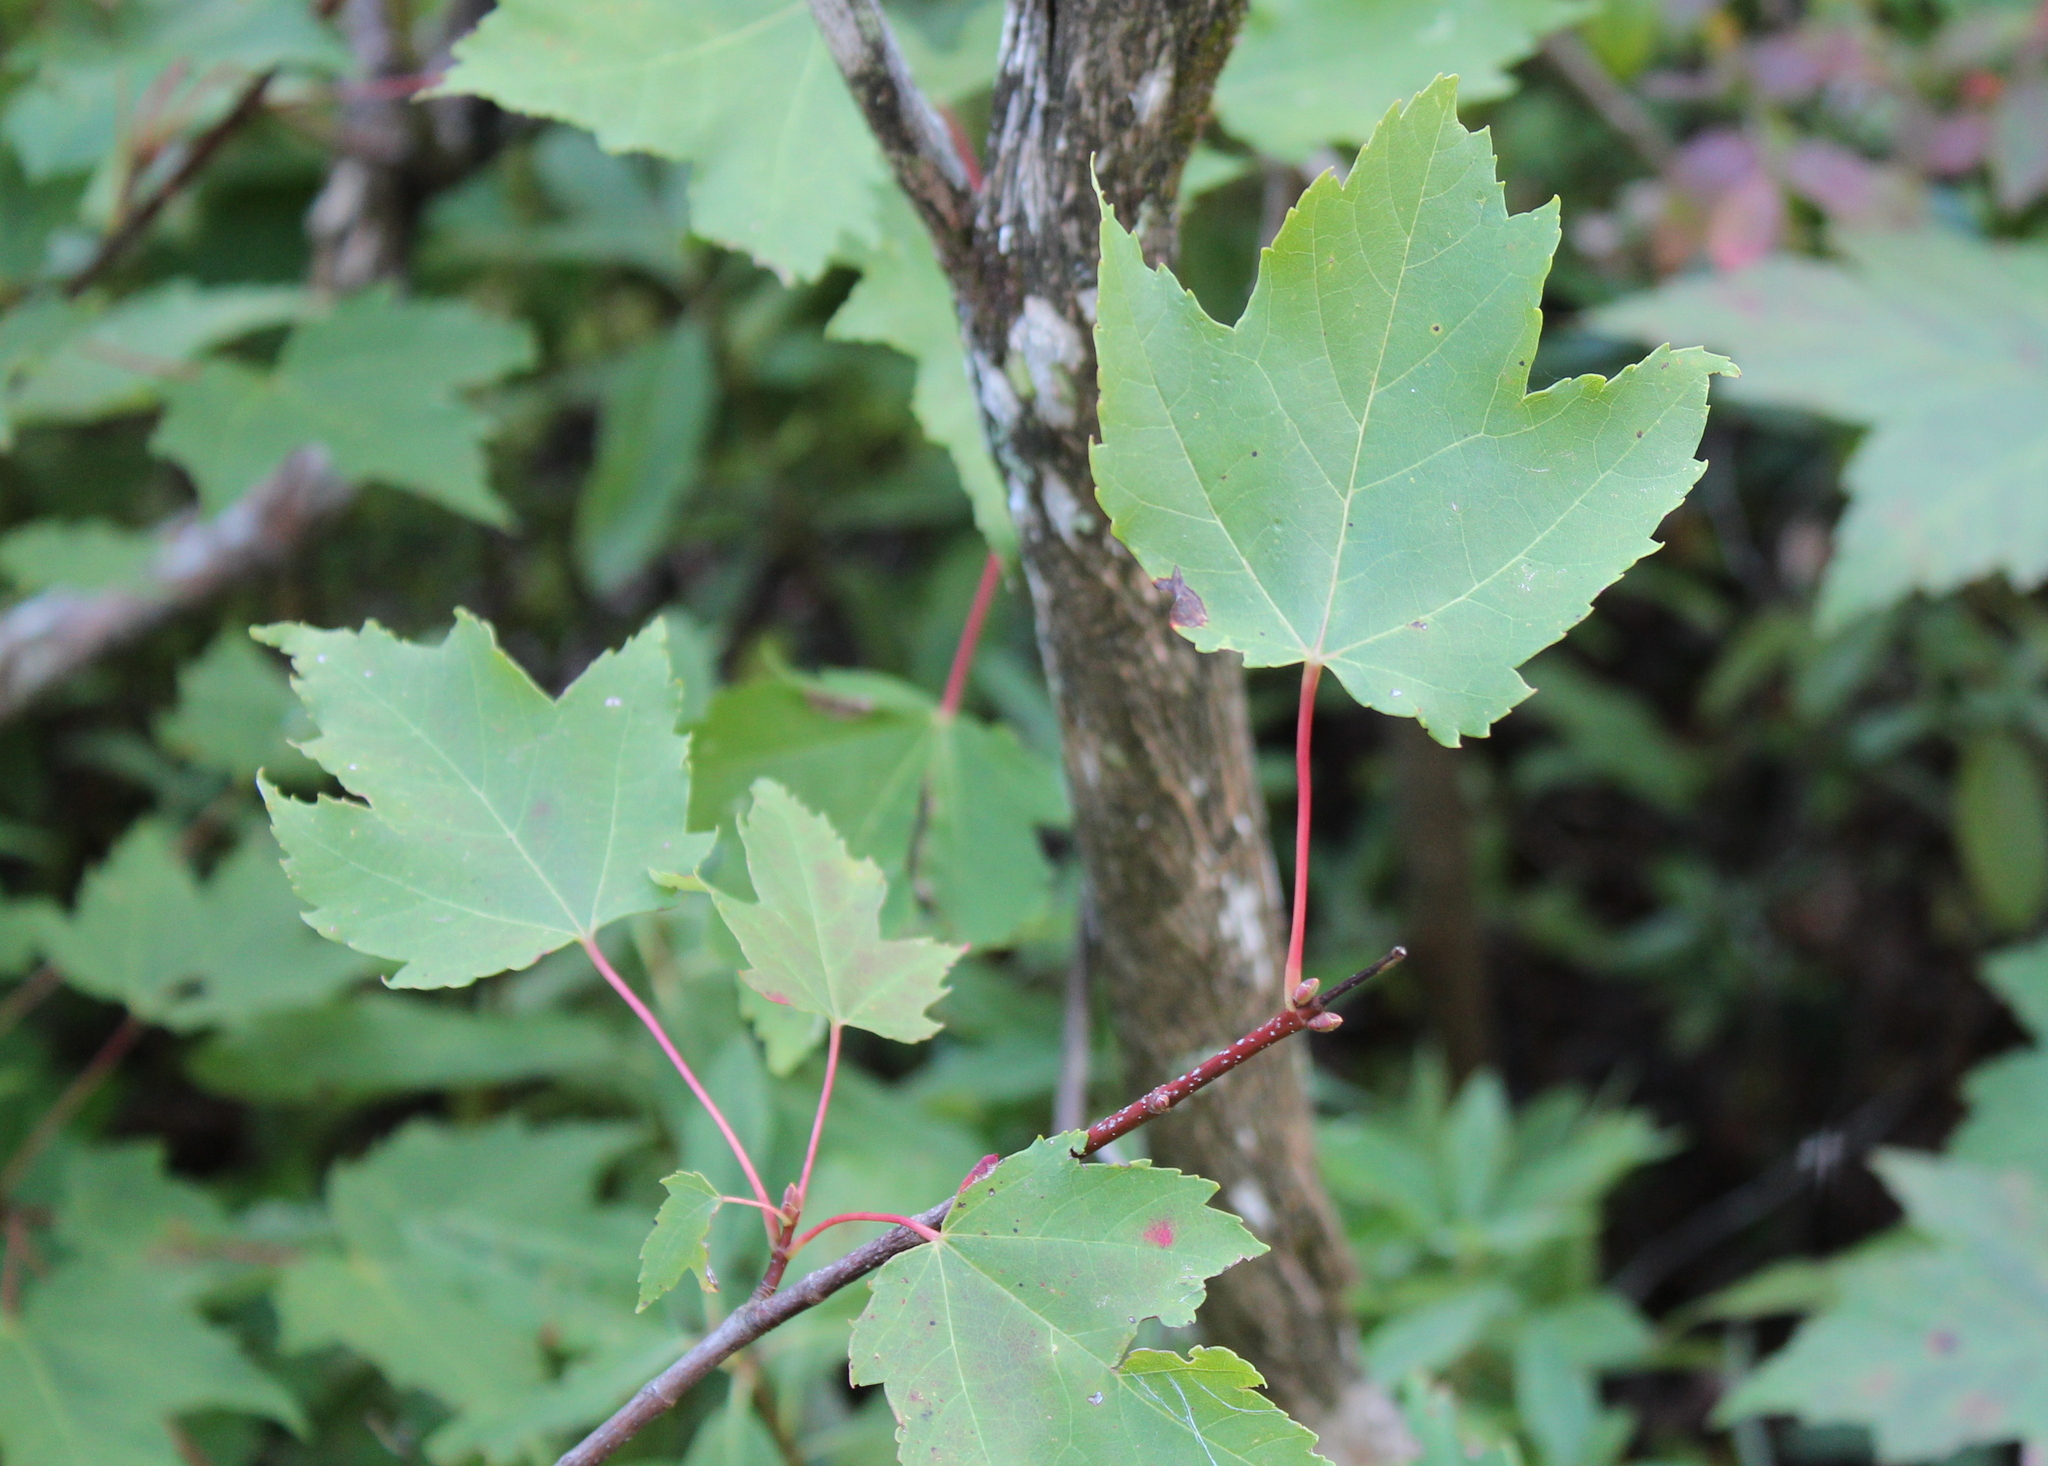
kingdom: Plantae
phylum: Tracheophyta
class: Magnoliopsida
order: Sapindales
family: Sapindaceae
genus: Acer
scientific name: Acer rubrum
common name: Red maple
